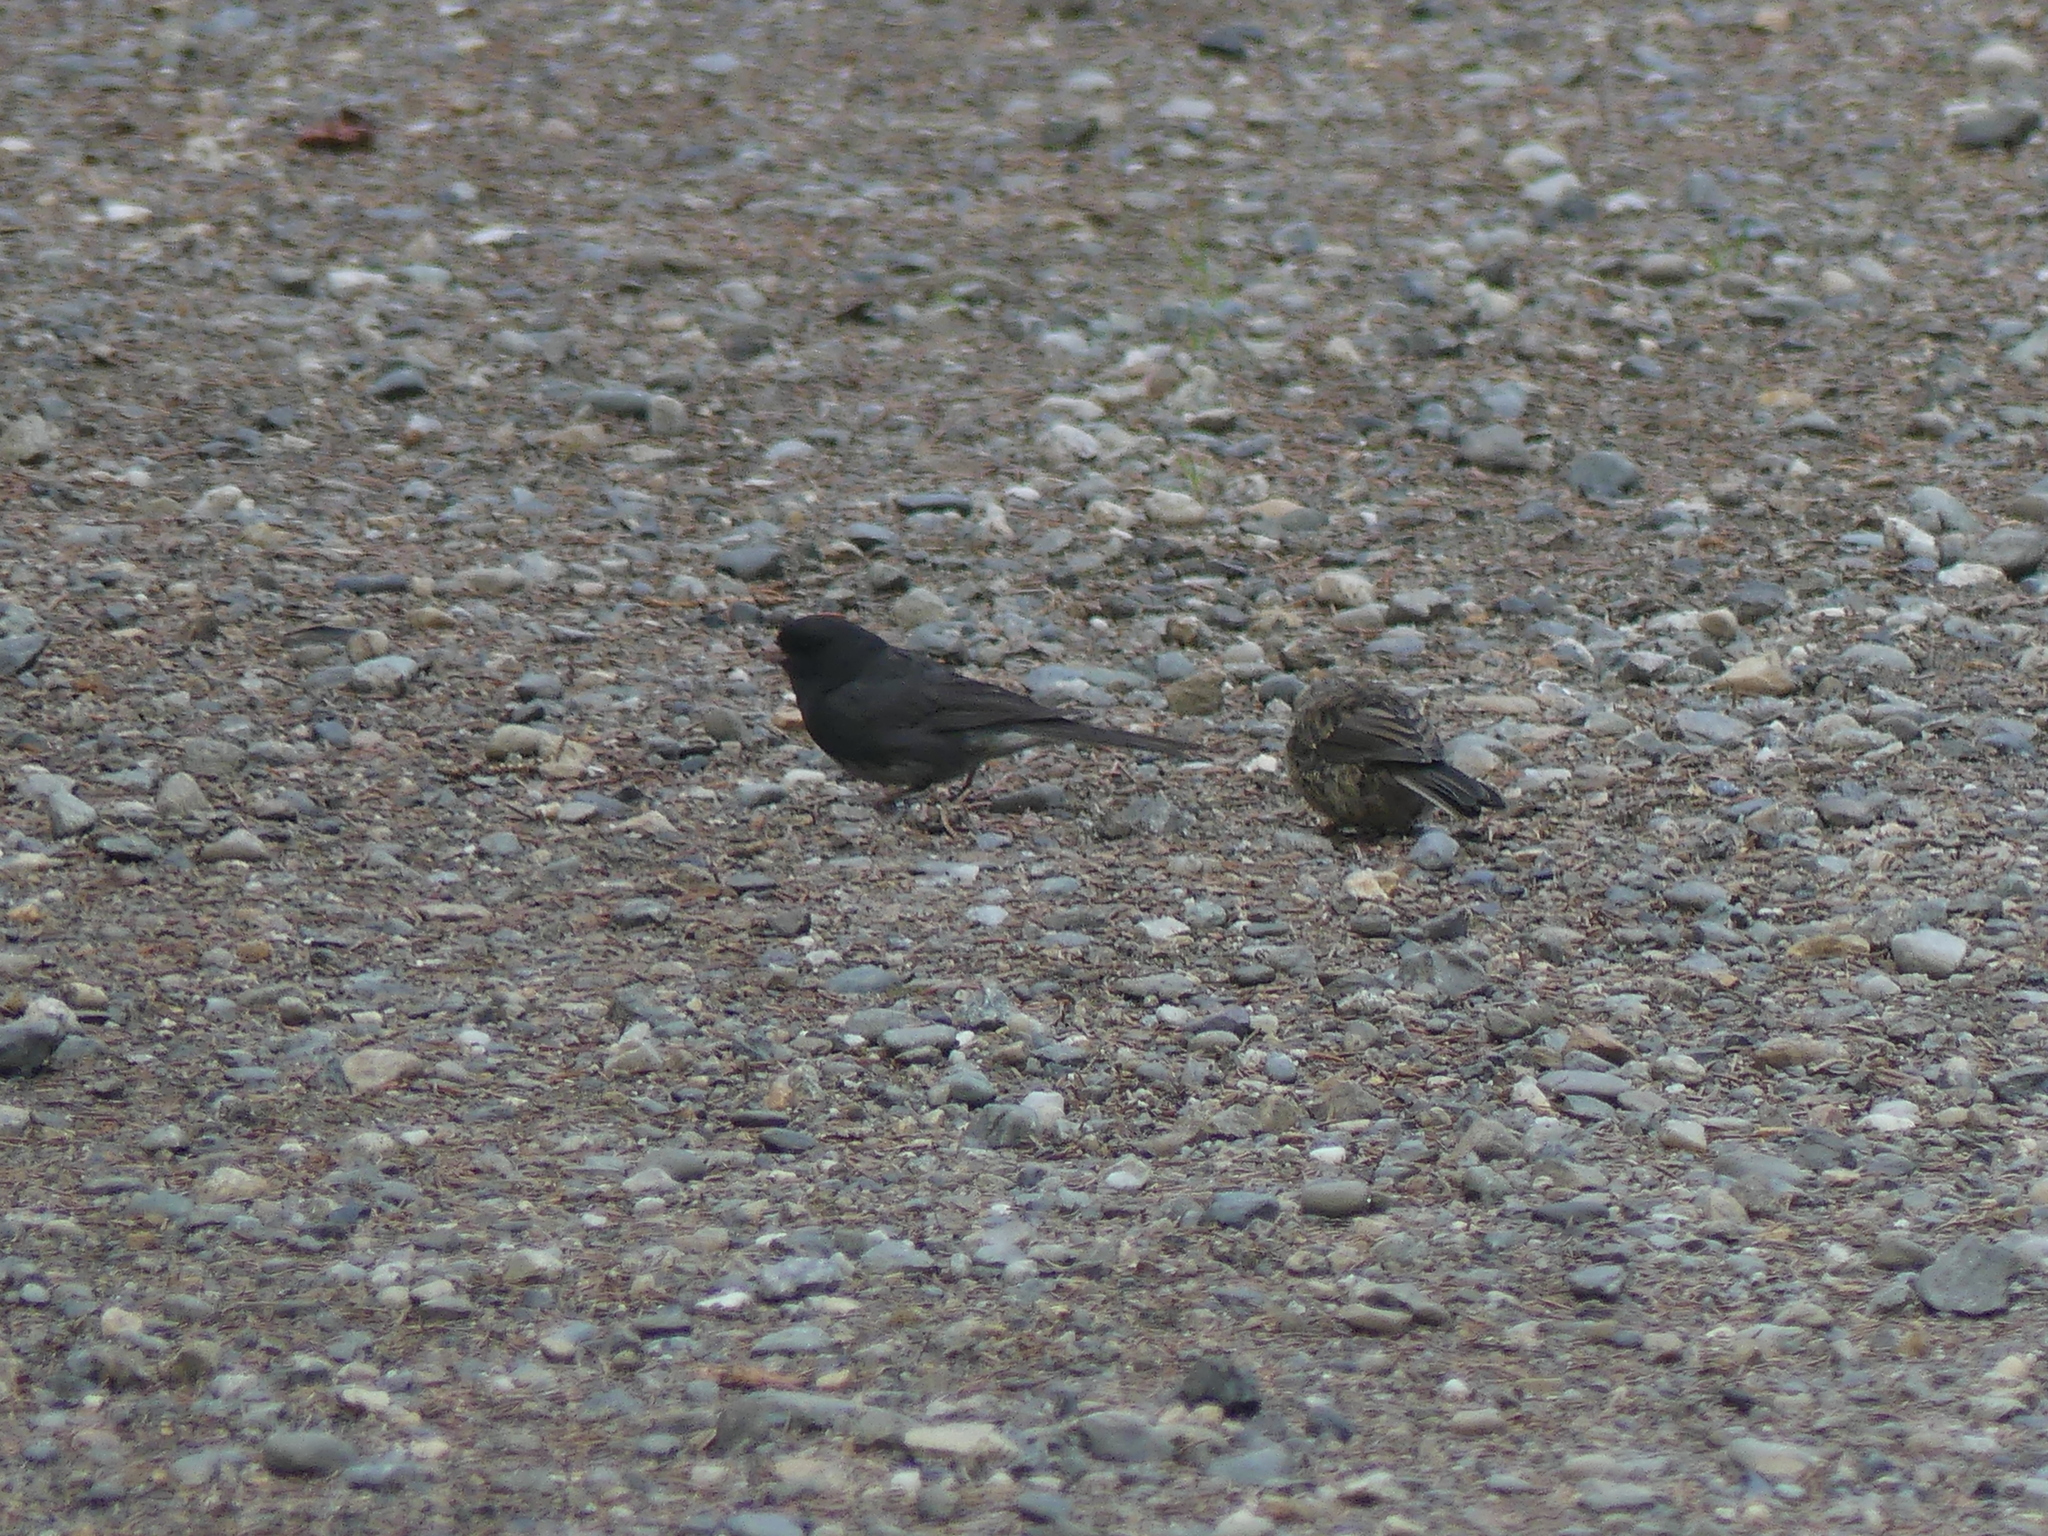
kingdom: Animalia
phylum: Chordata
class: Aves
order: Passeriformes
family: Passerellidae
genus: Junco
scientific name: Junco hyemalis
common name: Dark-eyed junco
